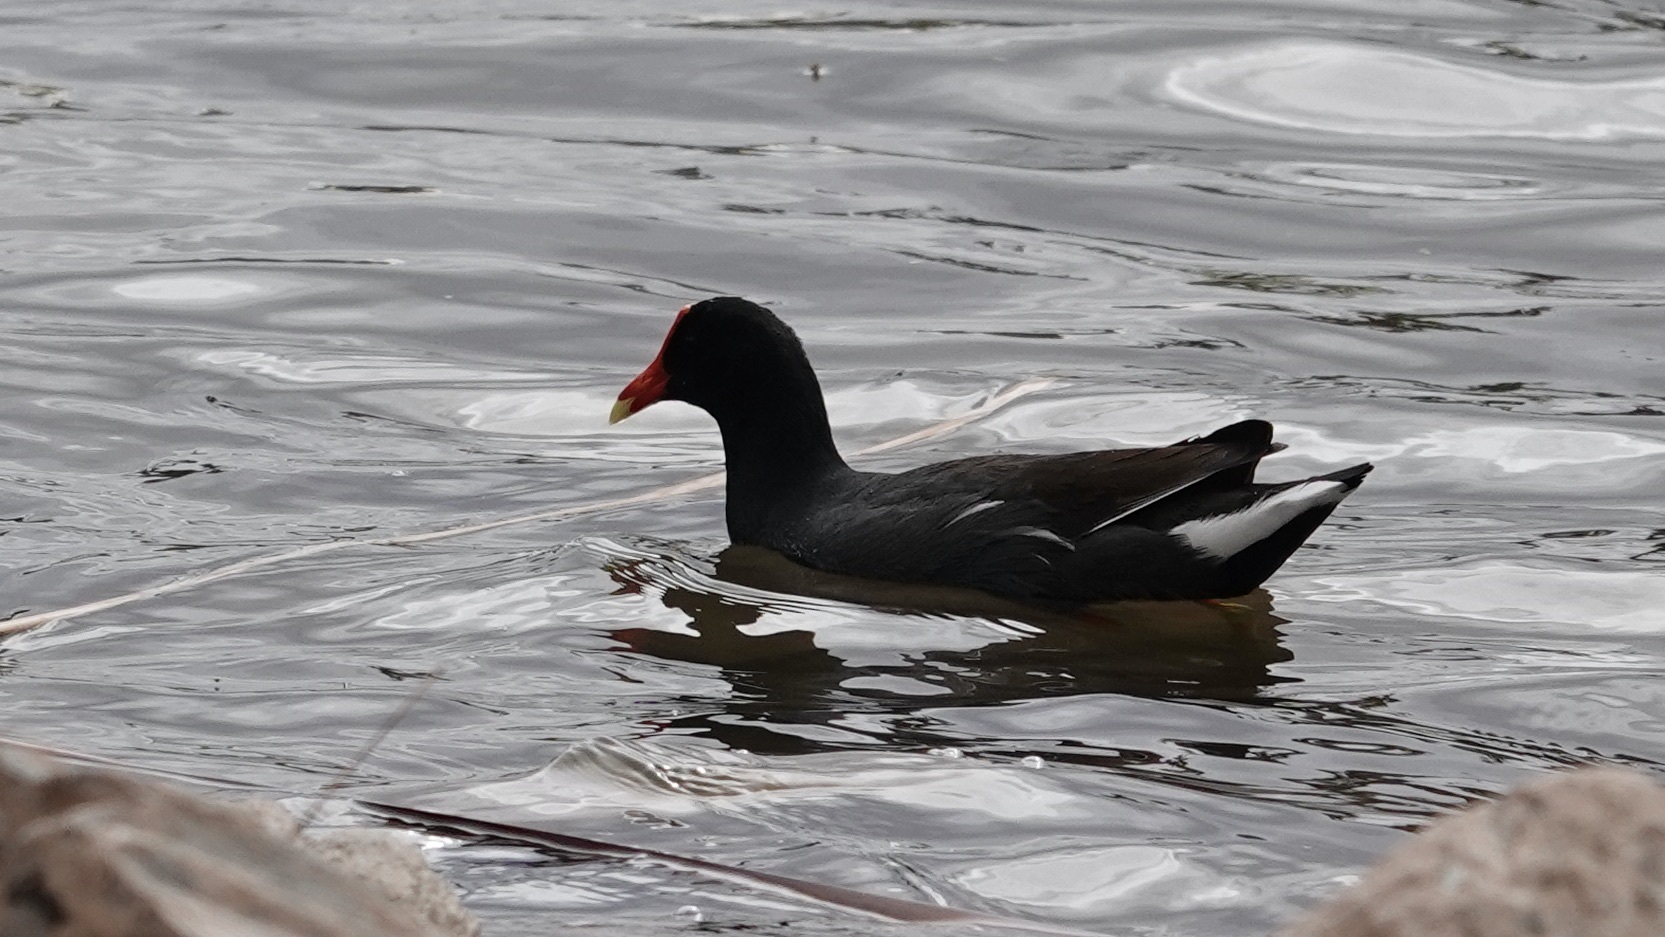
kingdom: Animalia
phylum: Chordata
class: Aves
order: Gruiformes
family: Rallidae
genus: Gallinula
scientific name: Gallinula chloropus
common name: Common moorhen
